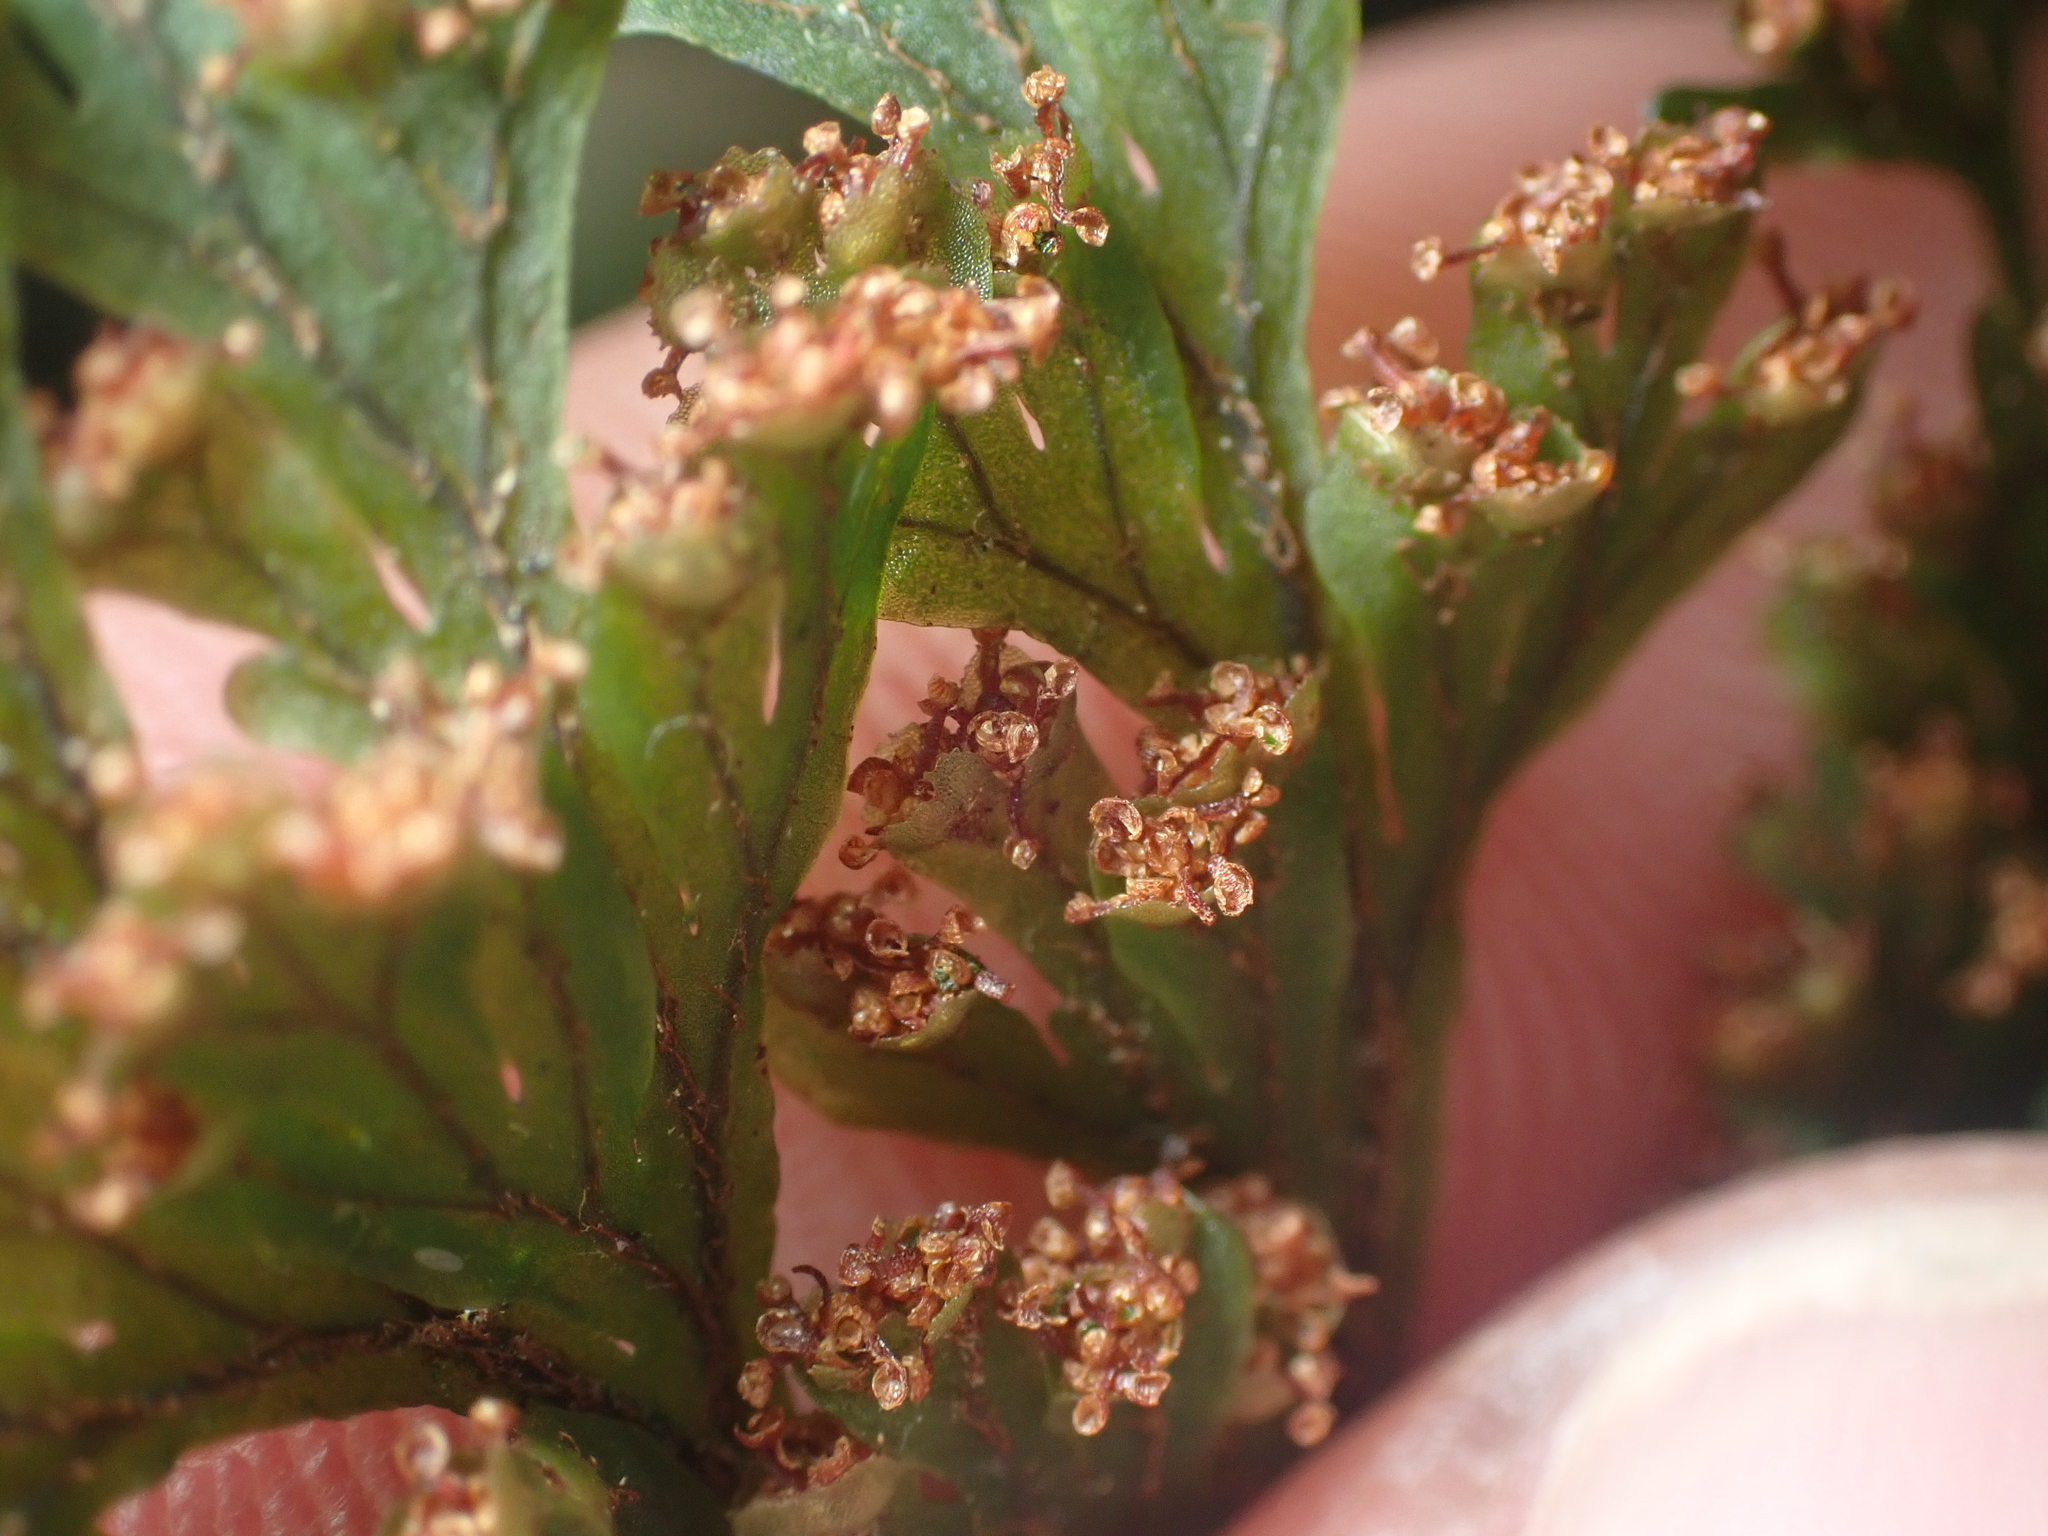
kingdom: Plantae
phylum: Tracheophyta
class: Polypodiopsida
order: Hymenophyllales
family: Hymenophyllaceae
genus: Hymenophyllum
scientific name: Hymenophyllum scabrum
